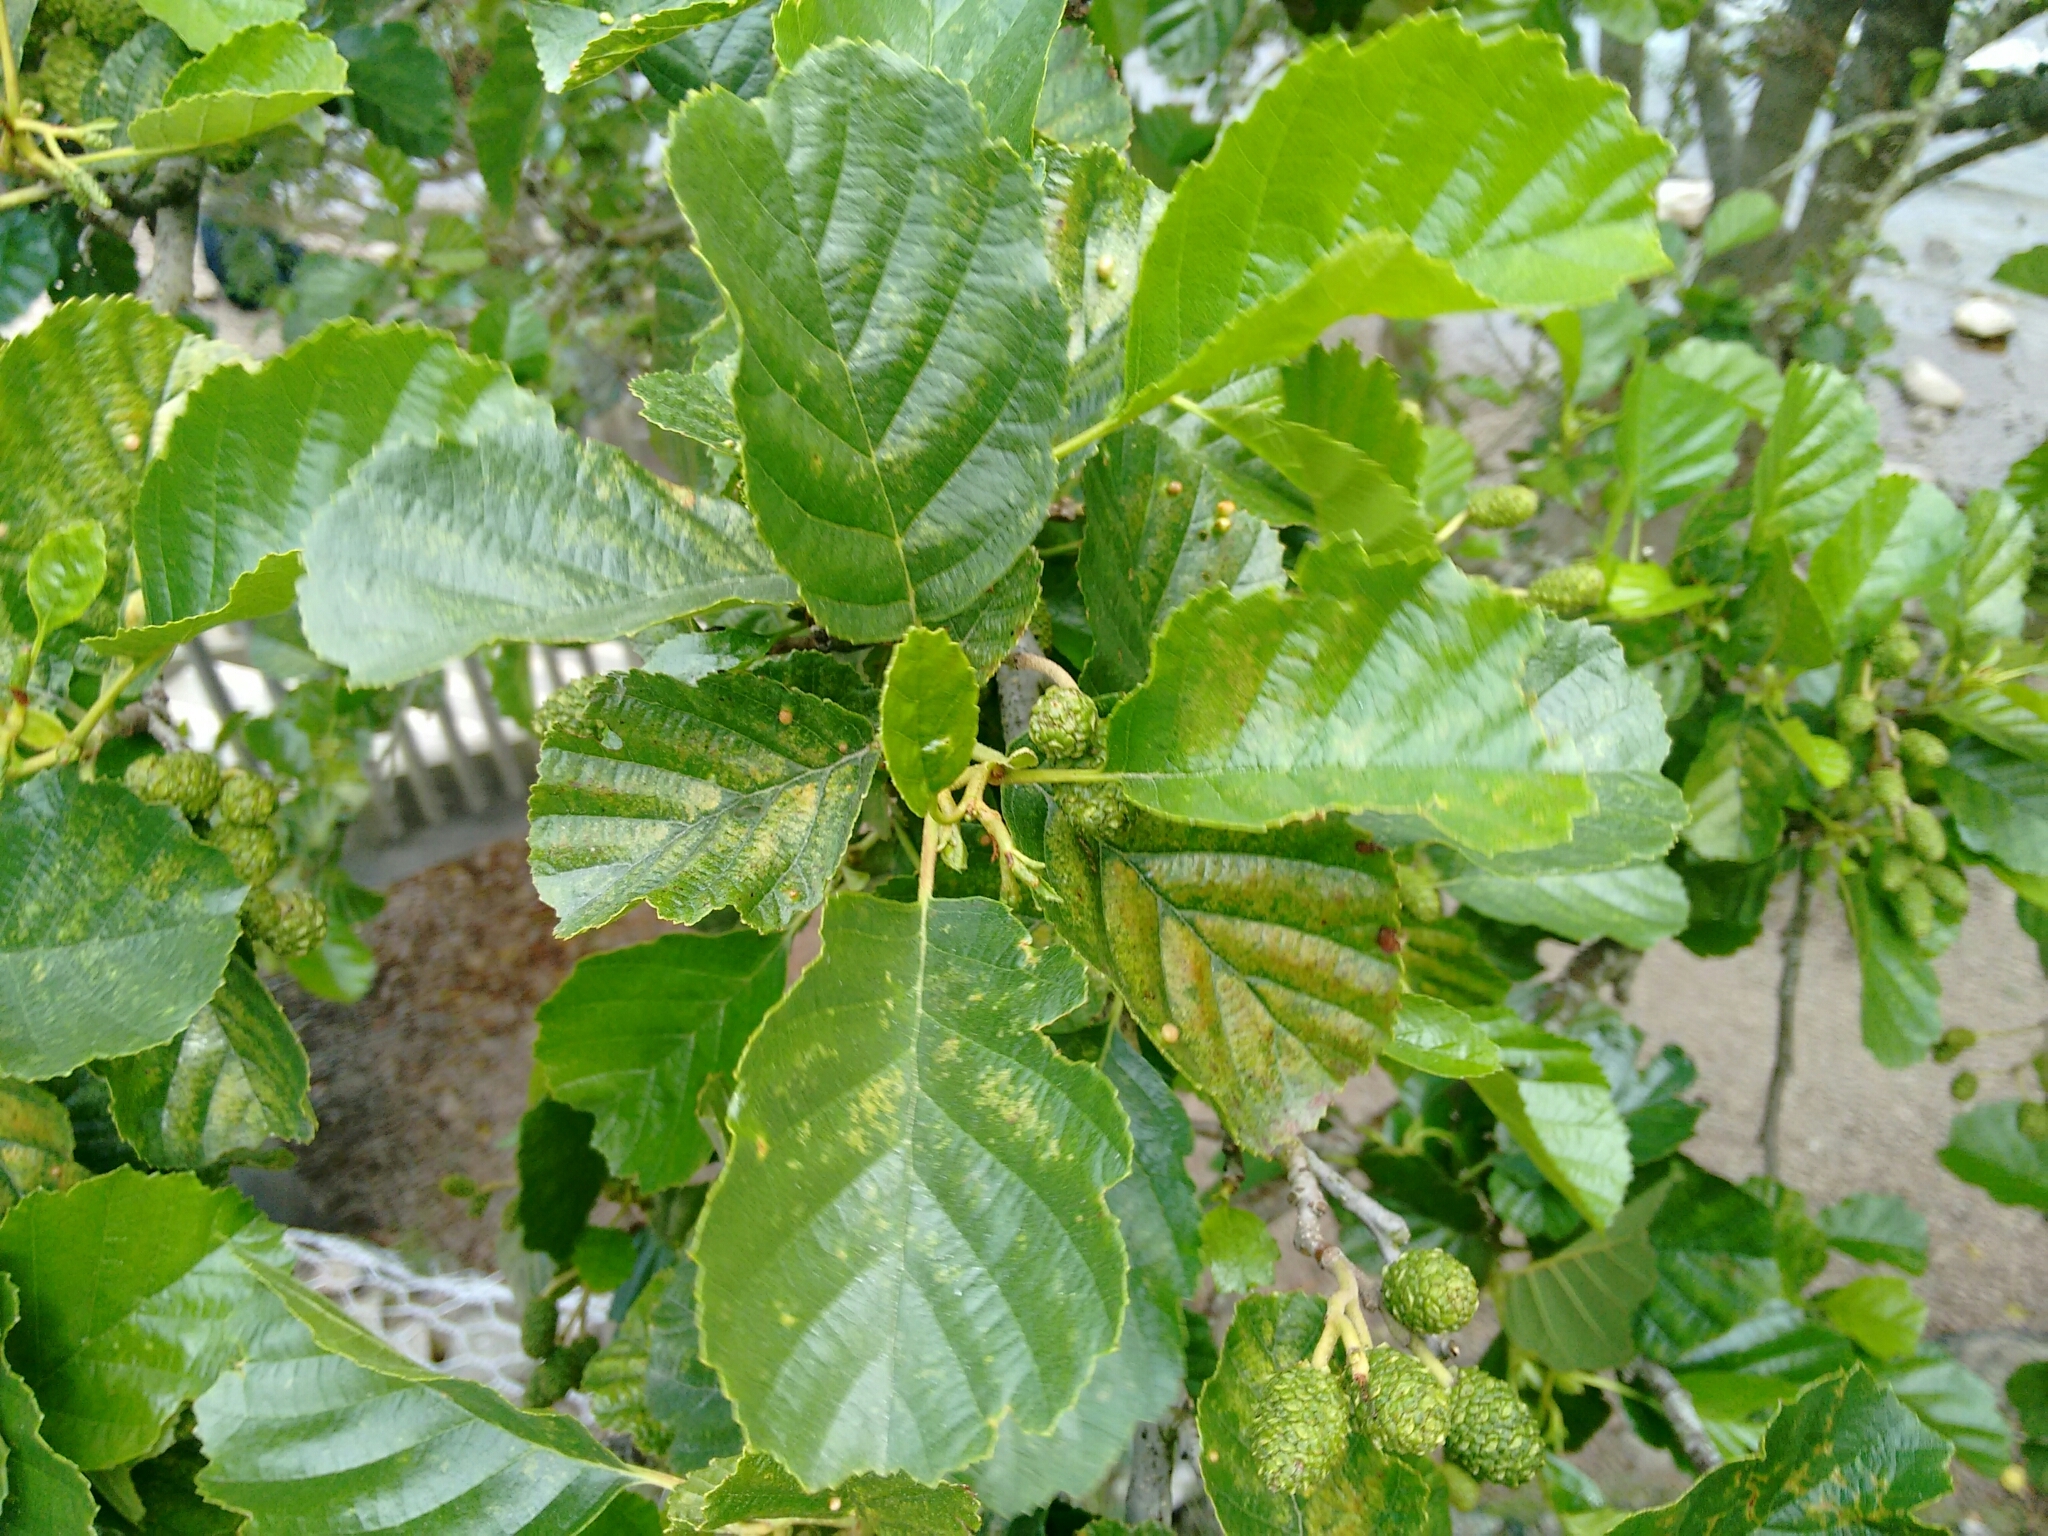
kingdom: Plantae
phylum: Tracheophyta
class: Magnoliopsida
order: Fagales
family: Betulaceae
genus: Alnus
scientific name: Alnus glutinosa
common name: Black alder
